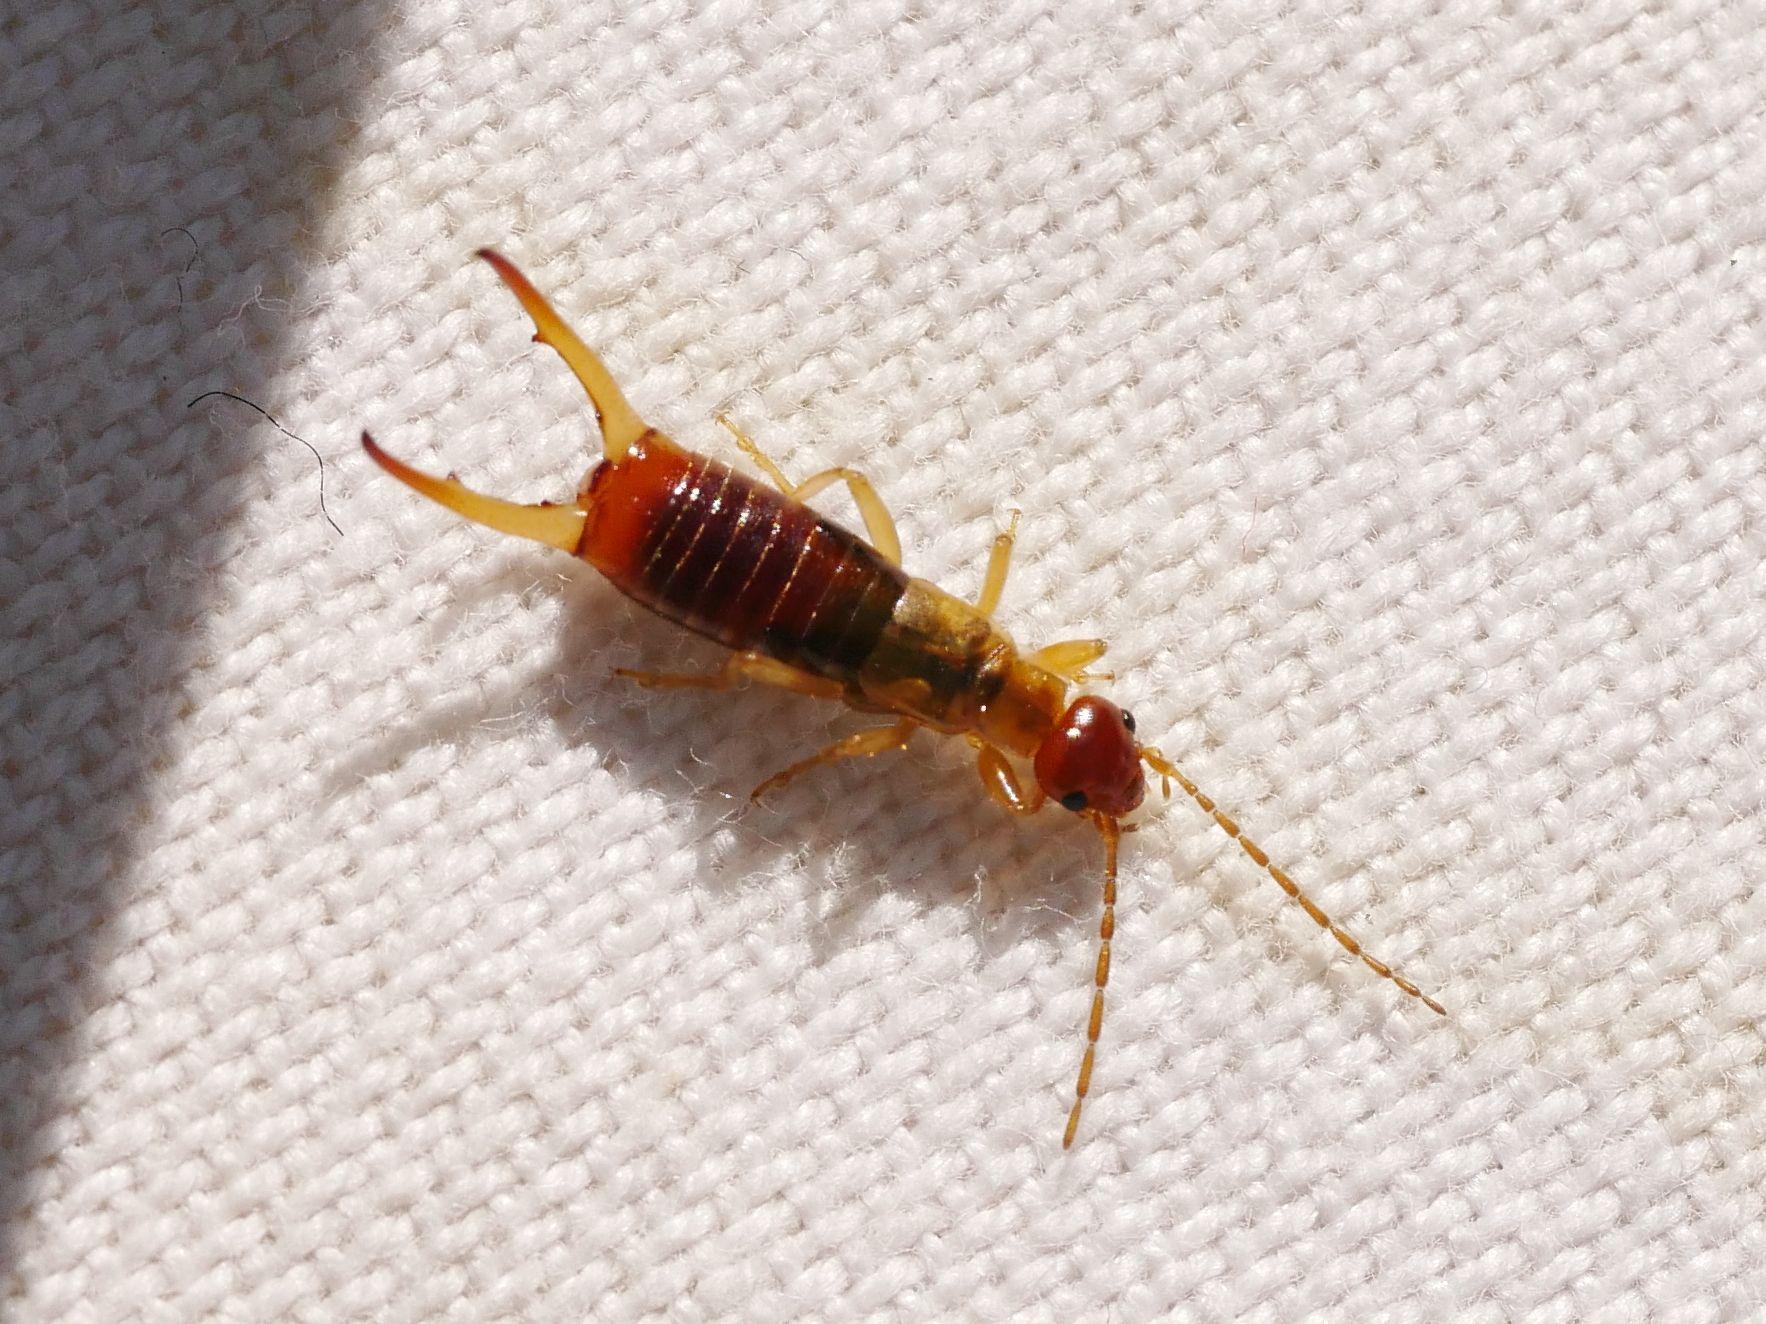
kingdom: Animalia
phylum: Arthropoda
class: Insecta
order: Dermaptera
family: Forficulidae
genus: Apterygida
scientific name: Apterygida albipennis
